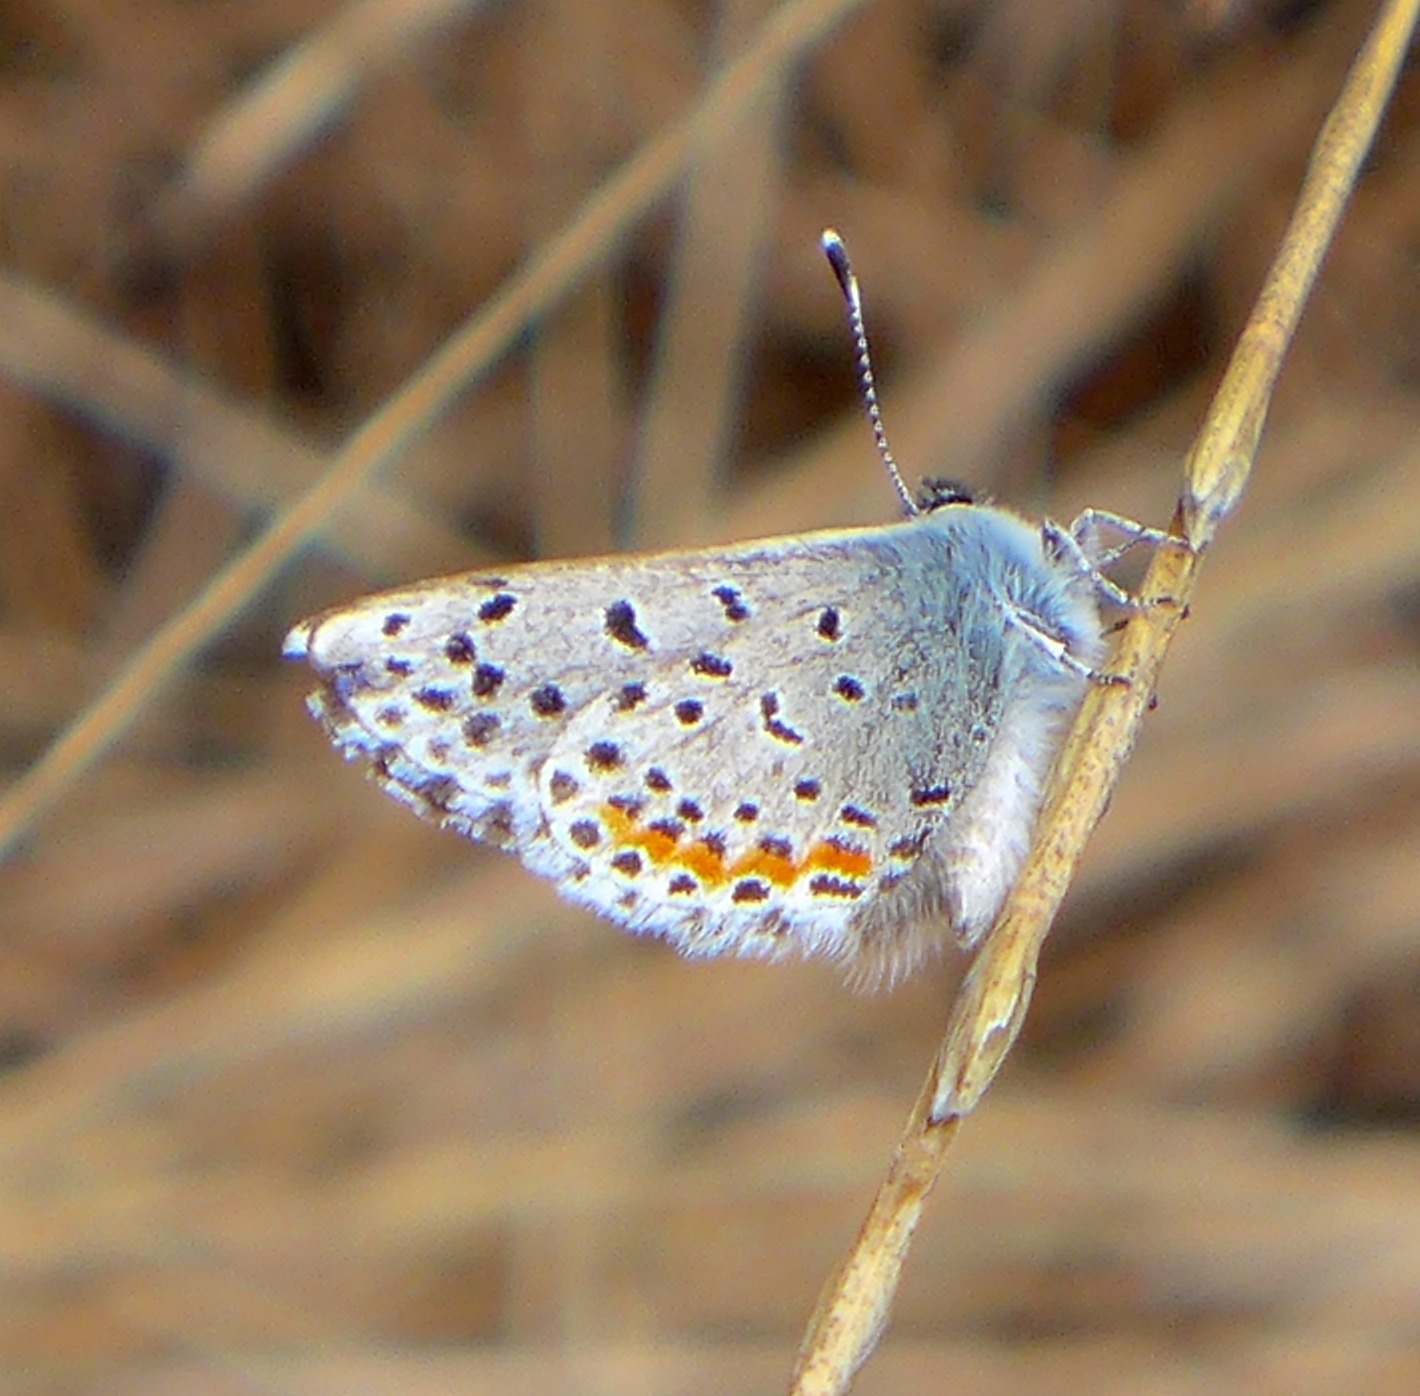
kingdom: Animalia
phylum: Arthropoda
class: Insecta
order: Lepidoptera
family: Lycaenidae
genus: Euphilotes
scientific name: Euphilotes enoptes
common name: Dotted blue
